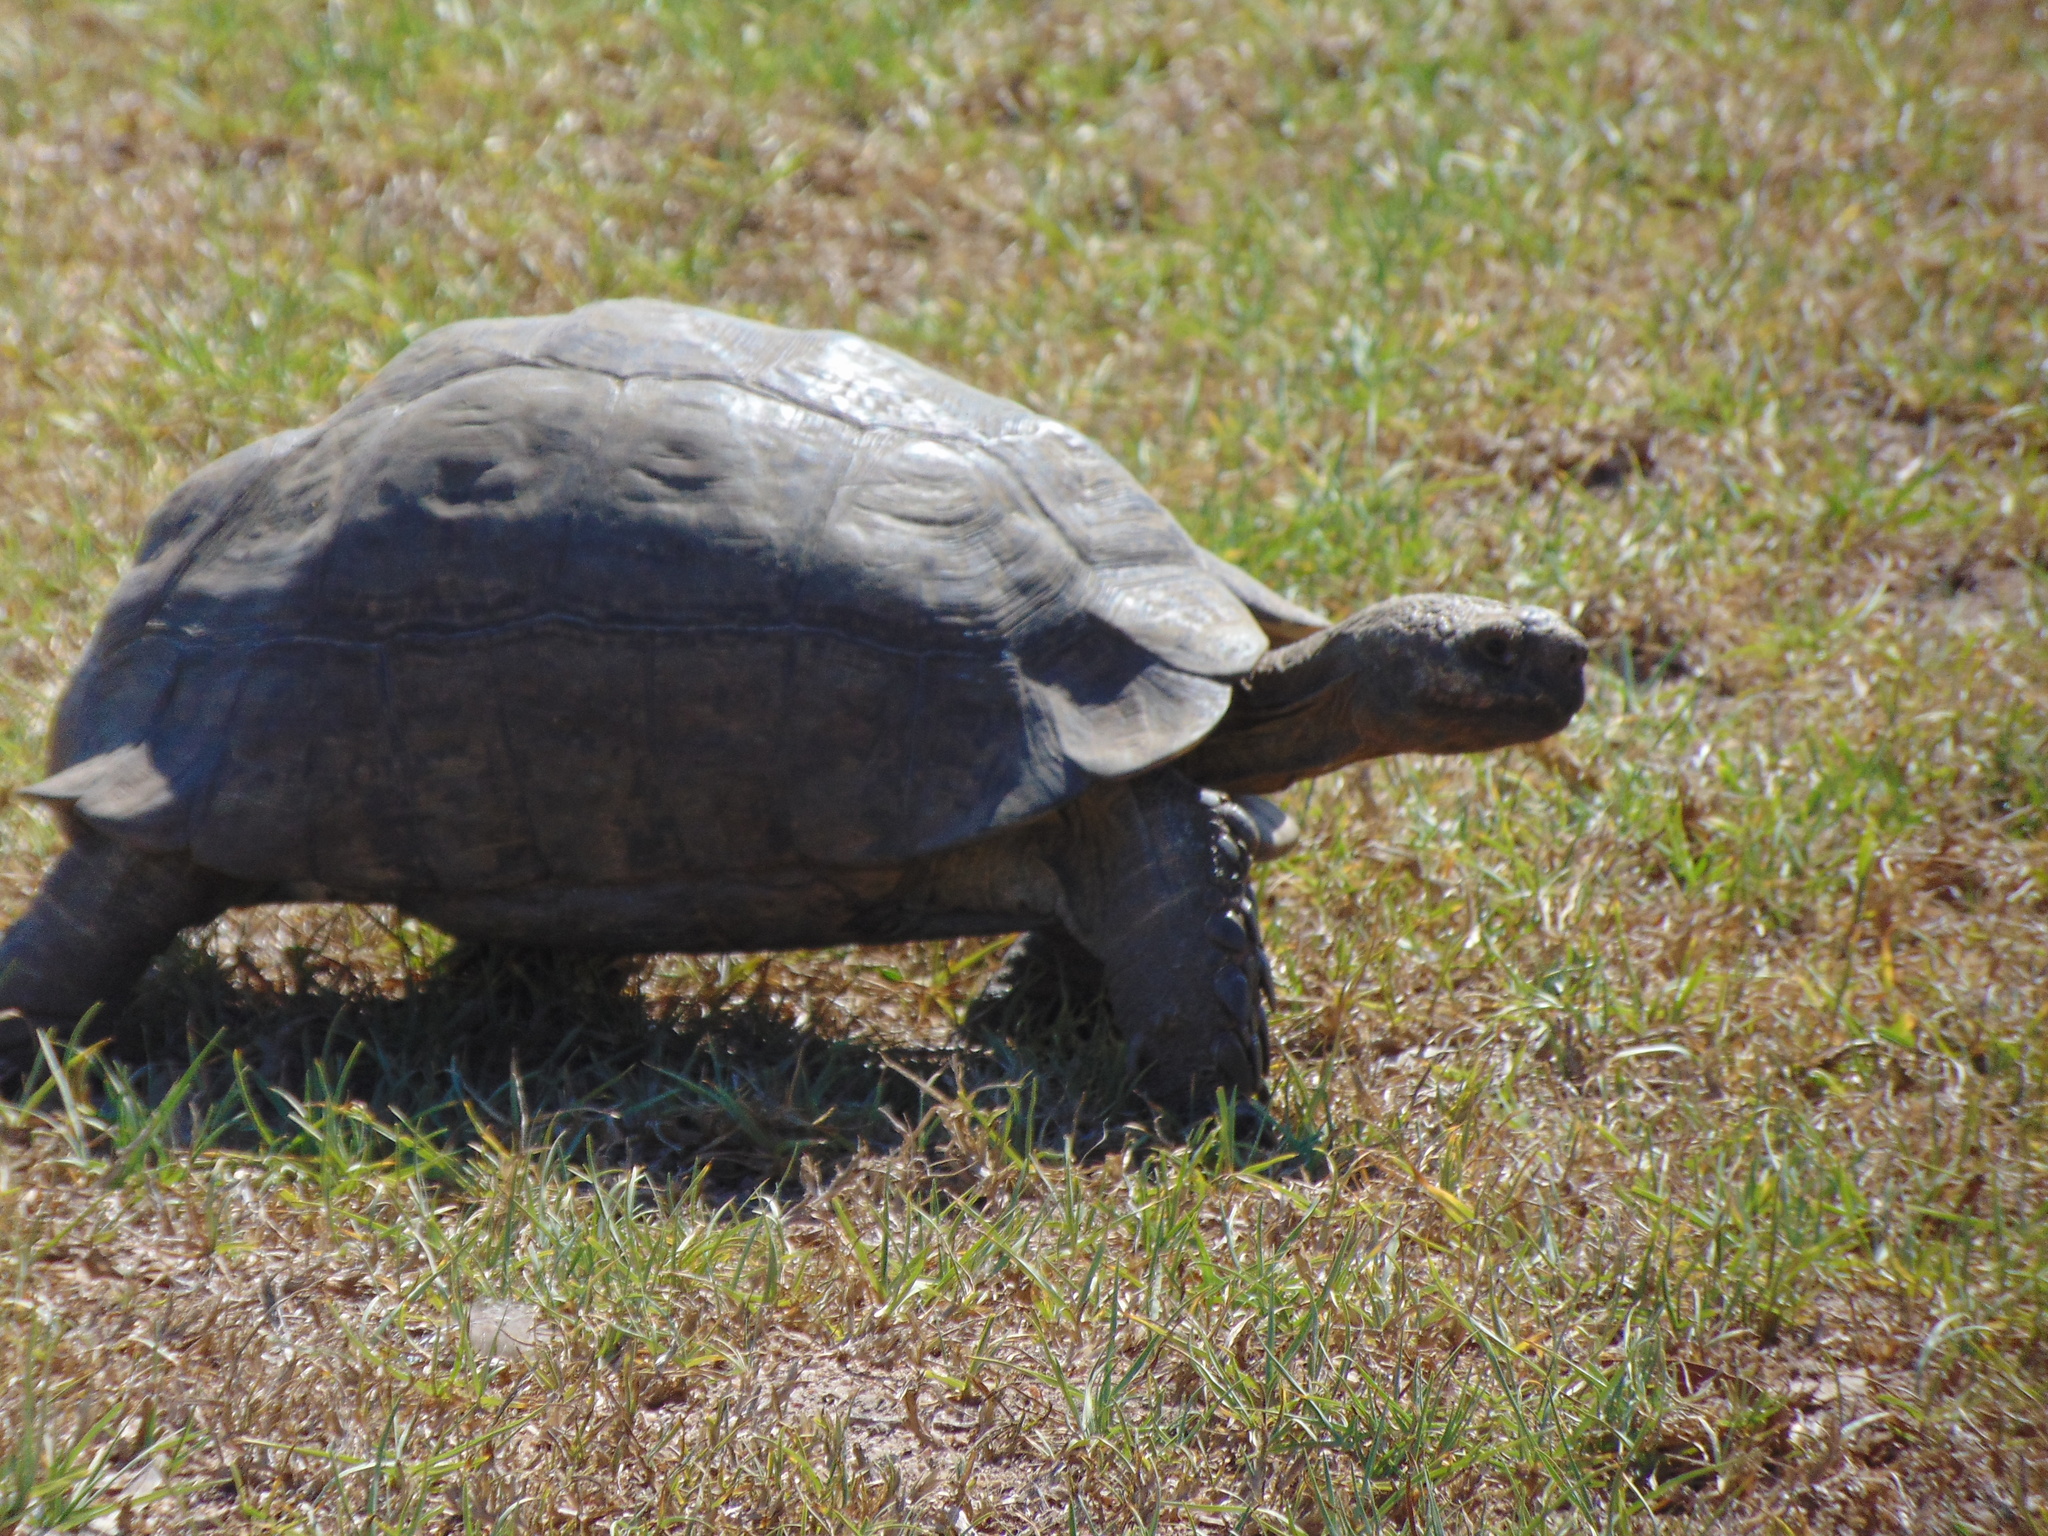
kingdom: Animalia
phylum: Chordata
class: Testudines
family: Testudinidae
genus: Stigmochelys
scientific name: Stigmochelys pardalis
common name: Leopard tortoise
